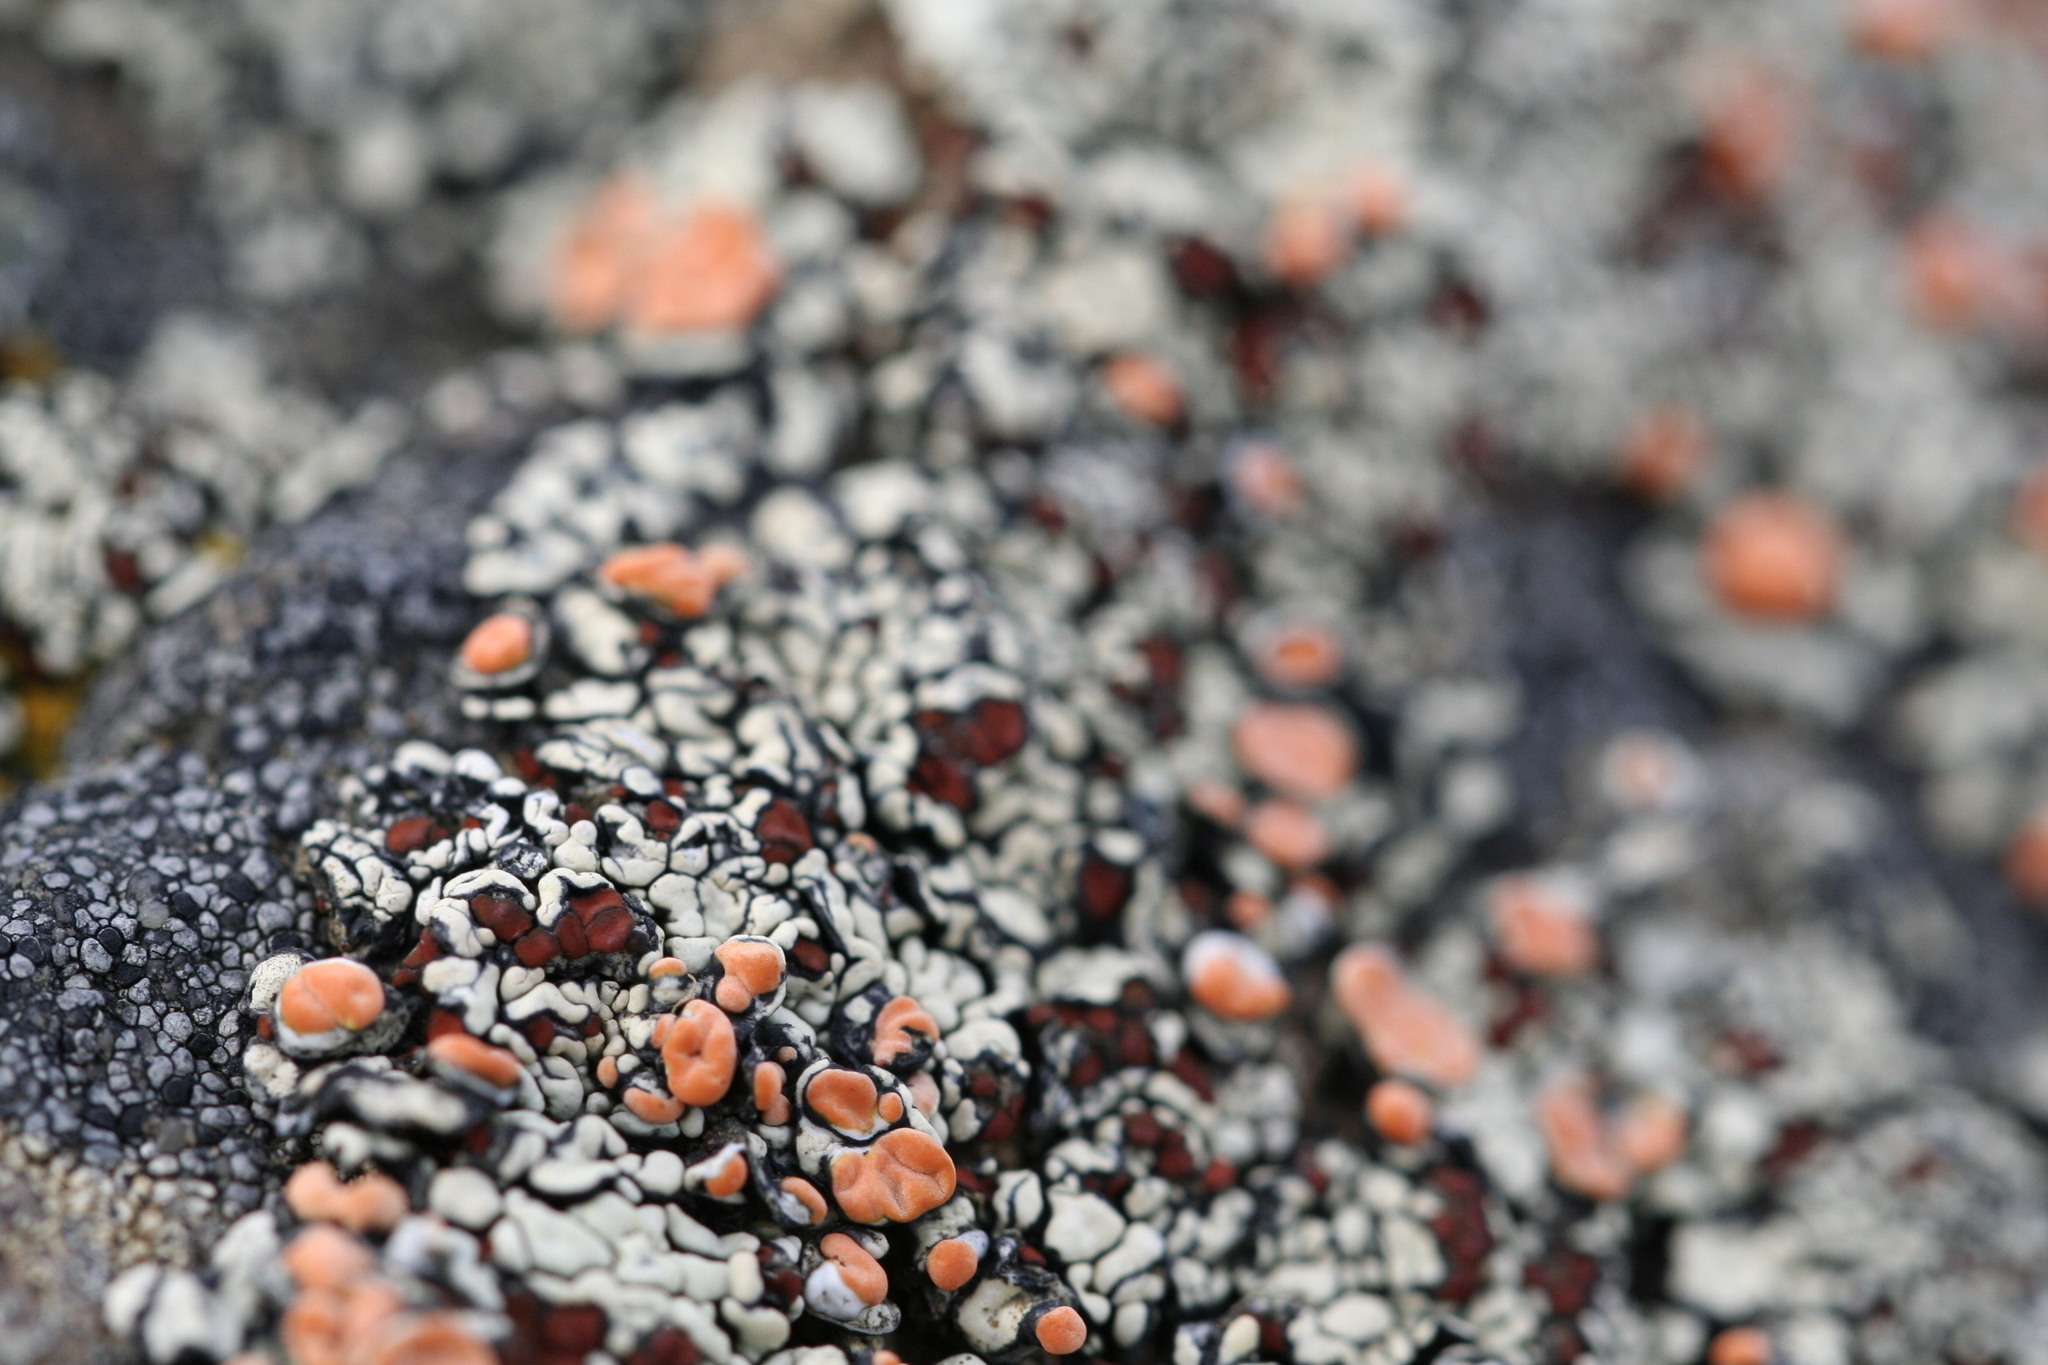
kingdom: Fungi
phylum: Ascomycota
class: Lecanoromycetes
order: Teloschistales
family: Teloschistaceae
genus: Erichansenia
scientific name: Erichansenia epithallina
